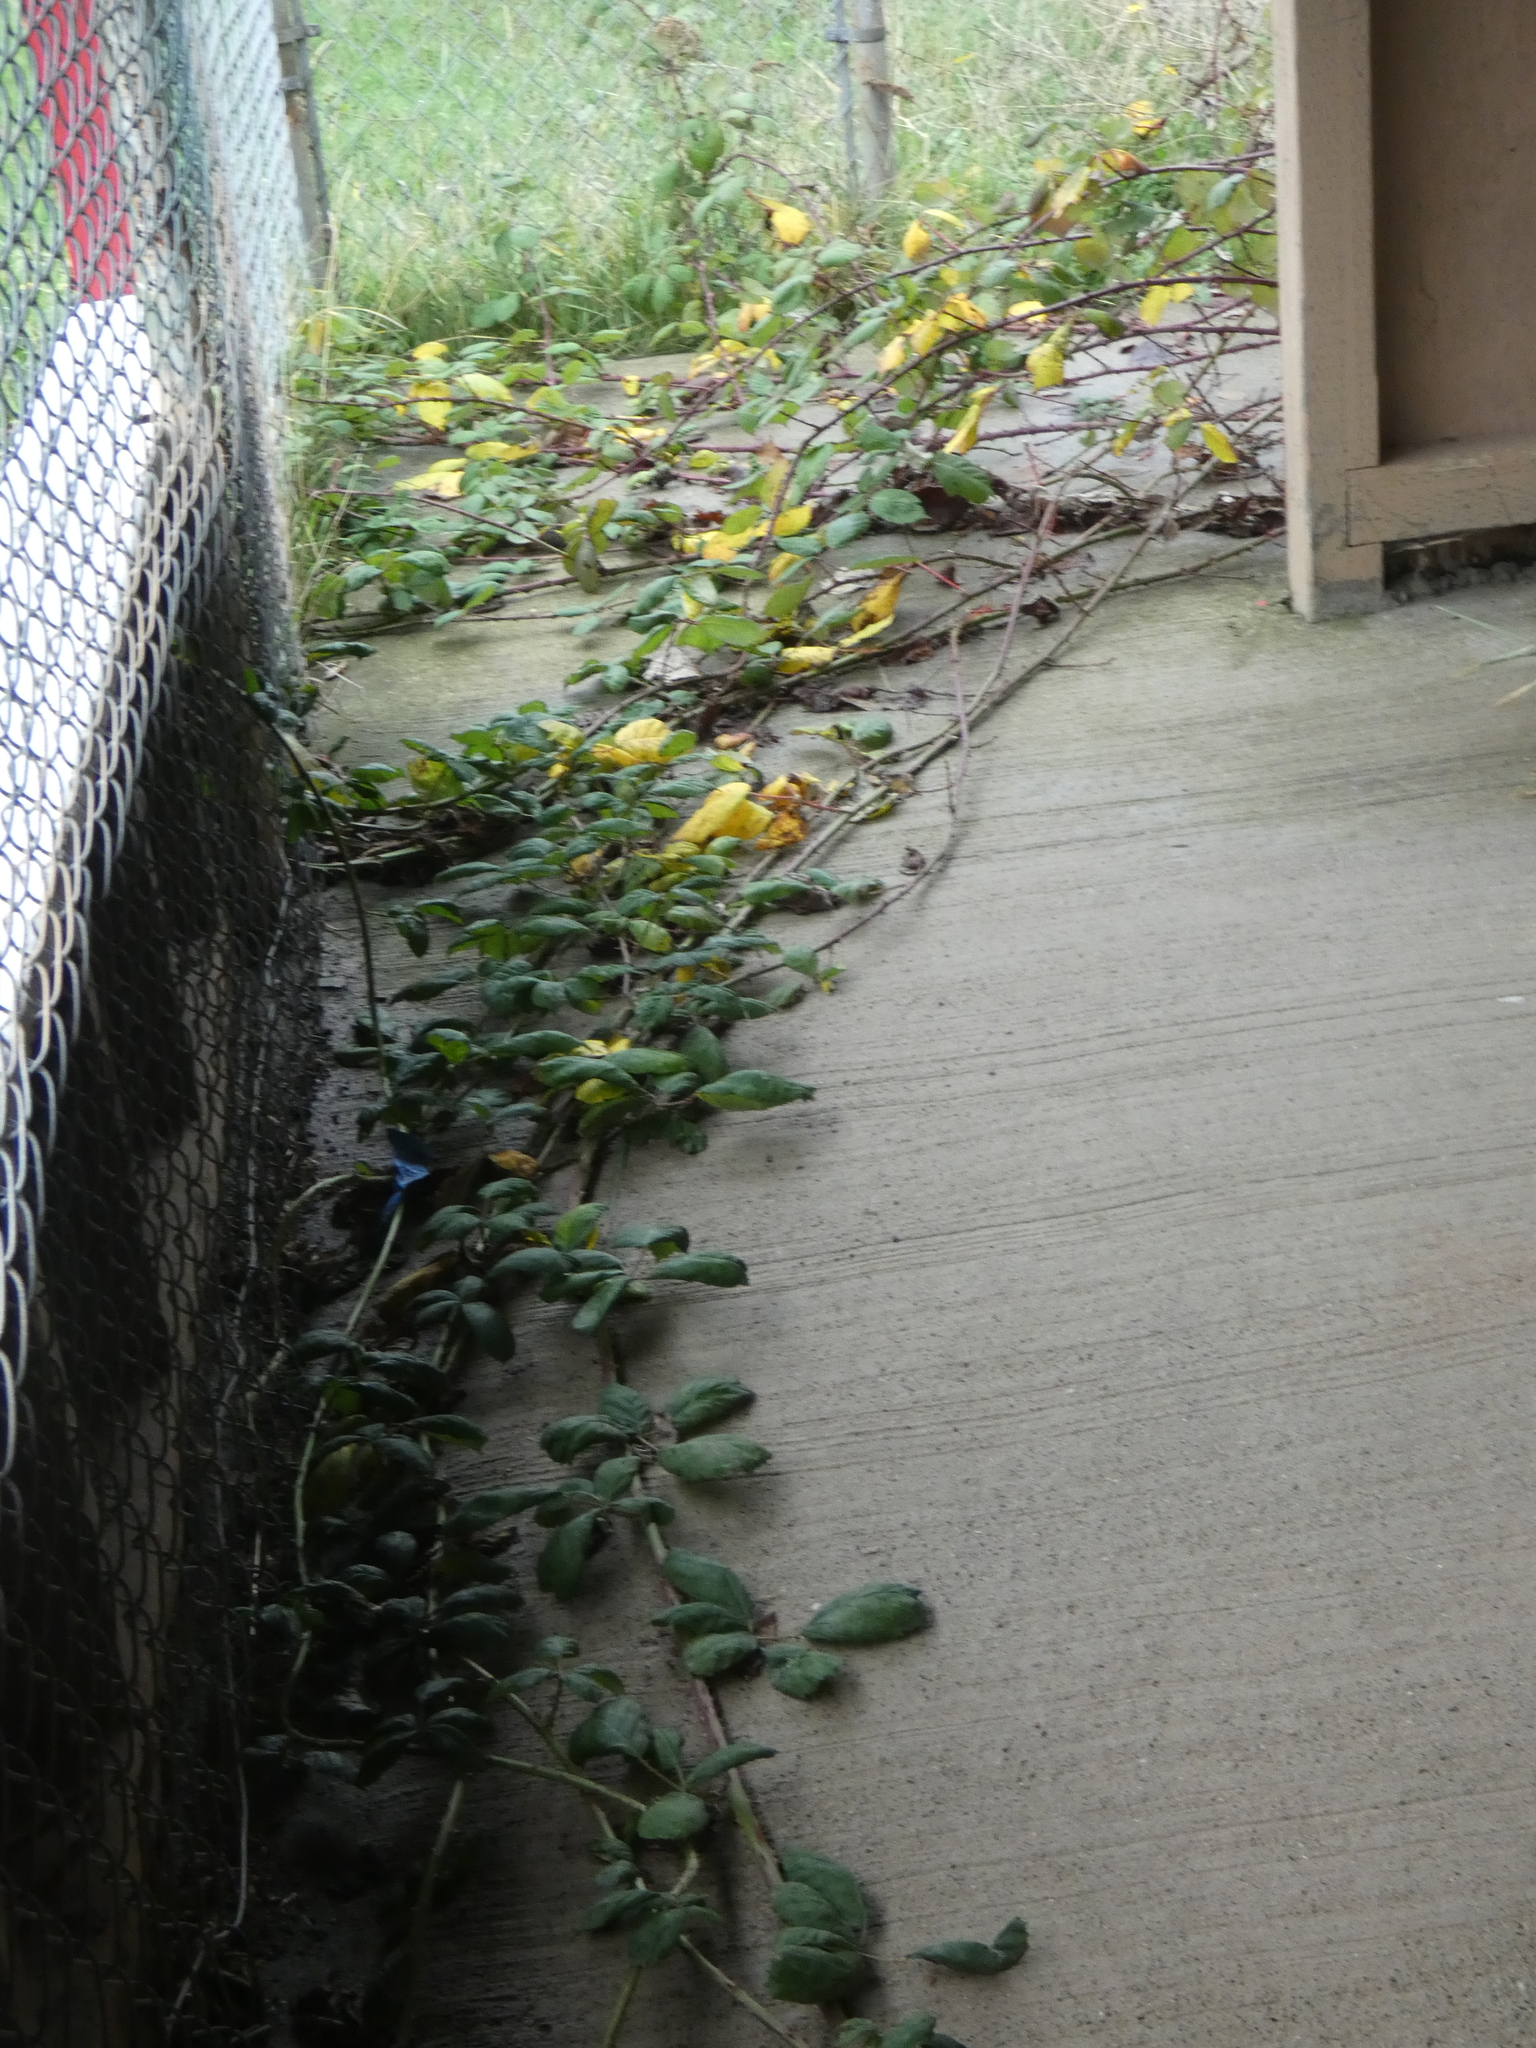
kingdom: Plantae
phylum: Tracheophyta
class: Magnoliopsida
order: Rosales
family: Rosaceae
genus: Rubus
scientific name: Rubus bifrons
